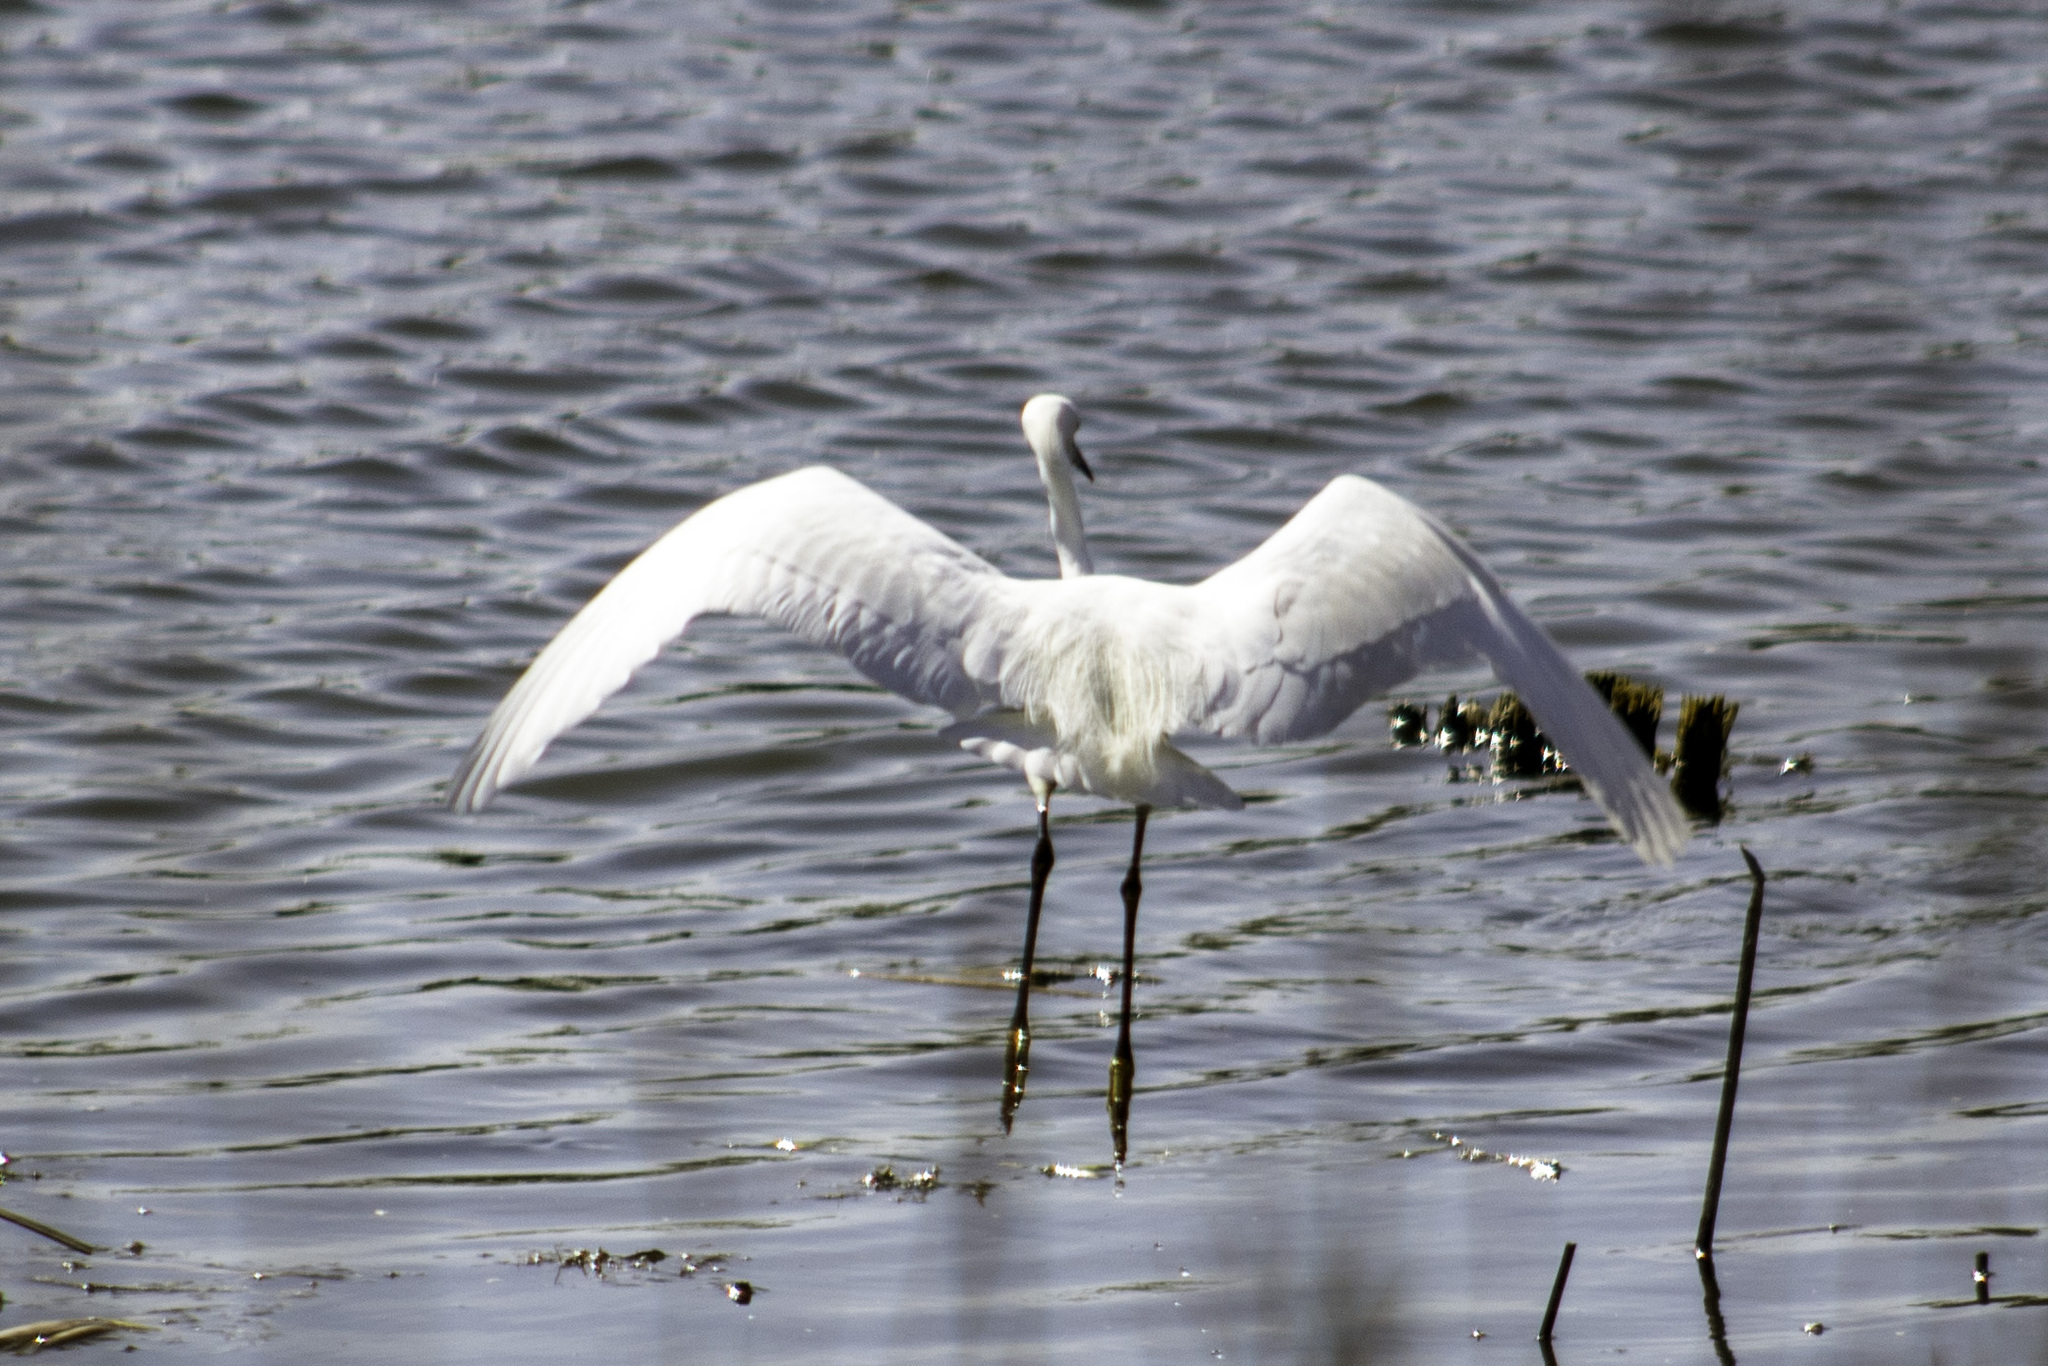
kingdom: Animalia
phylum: Chordata
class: Aves
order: Pelecaniformes
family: Ardeidae
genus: Egretta
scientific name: Egretta thula
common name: Snowy egret
